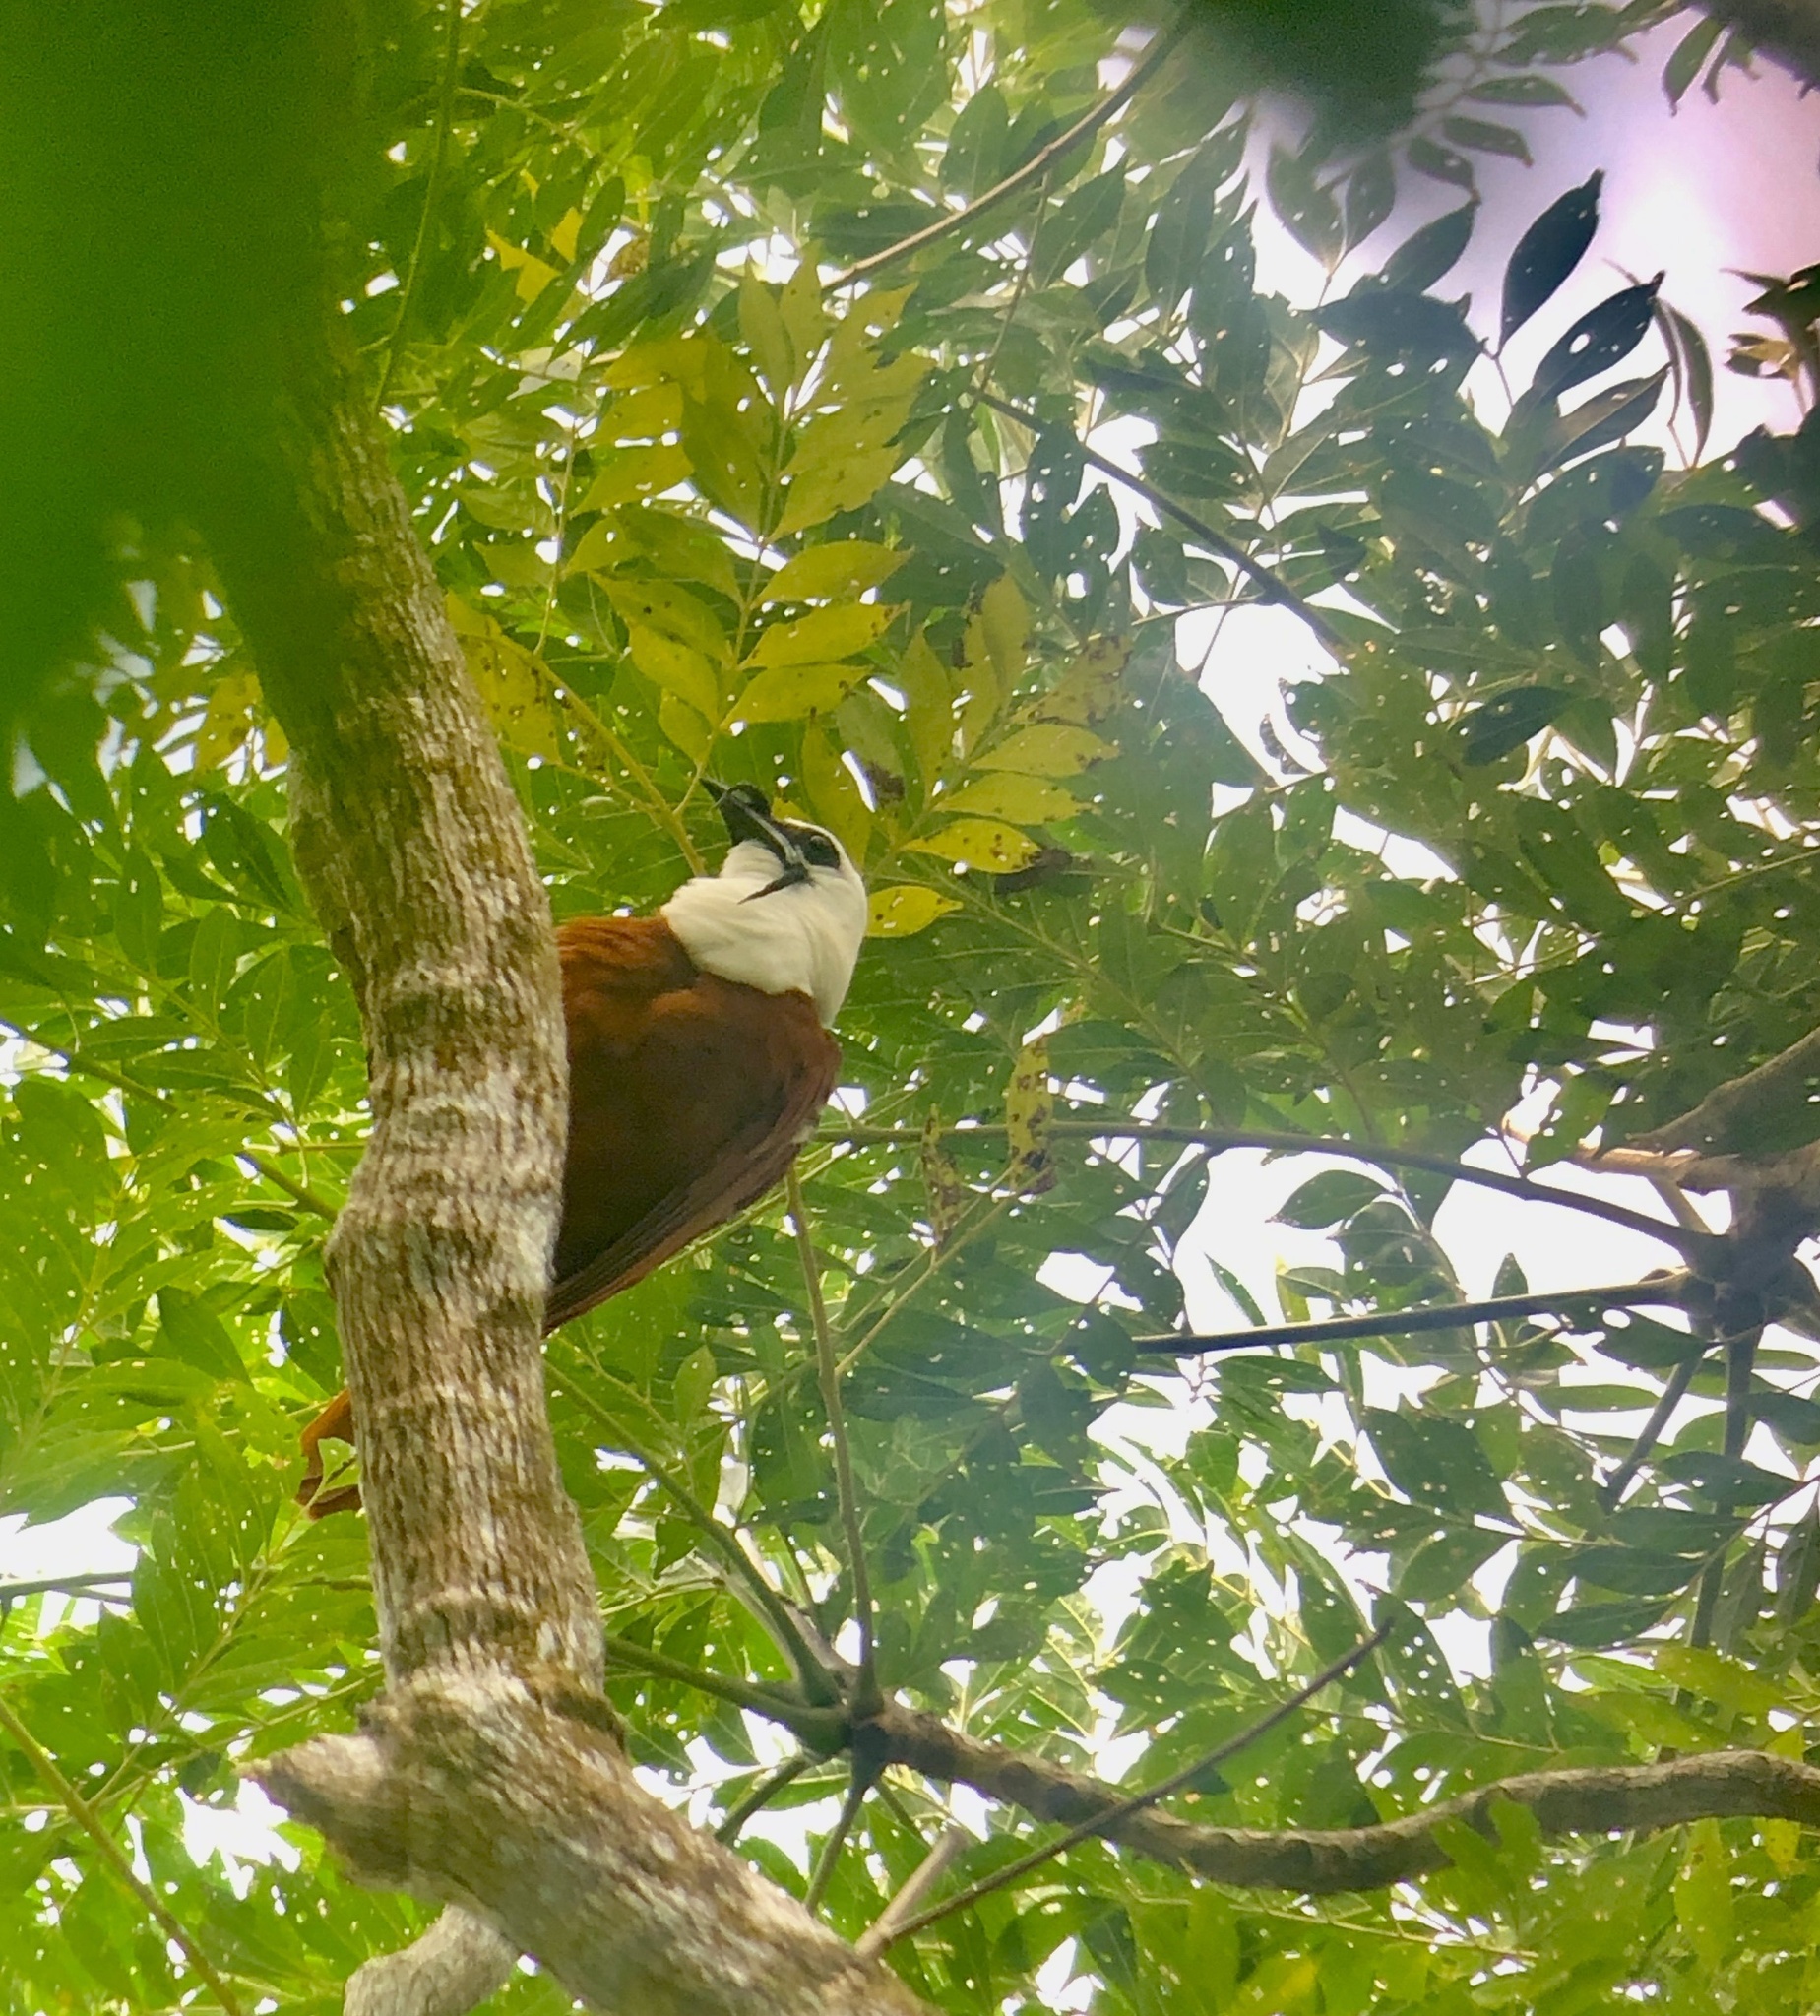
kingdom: Animalia
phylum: Chordata
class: Aves
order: Passeriformes
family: Cotingidae
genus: Procnias
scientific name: Procnias tricarunculatus
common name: Three-wattled bellbird
